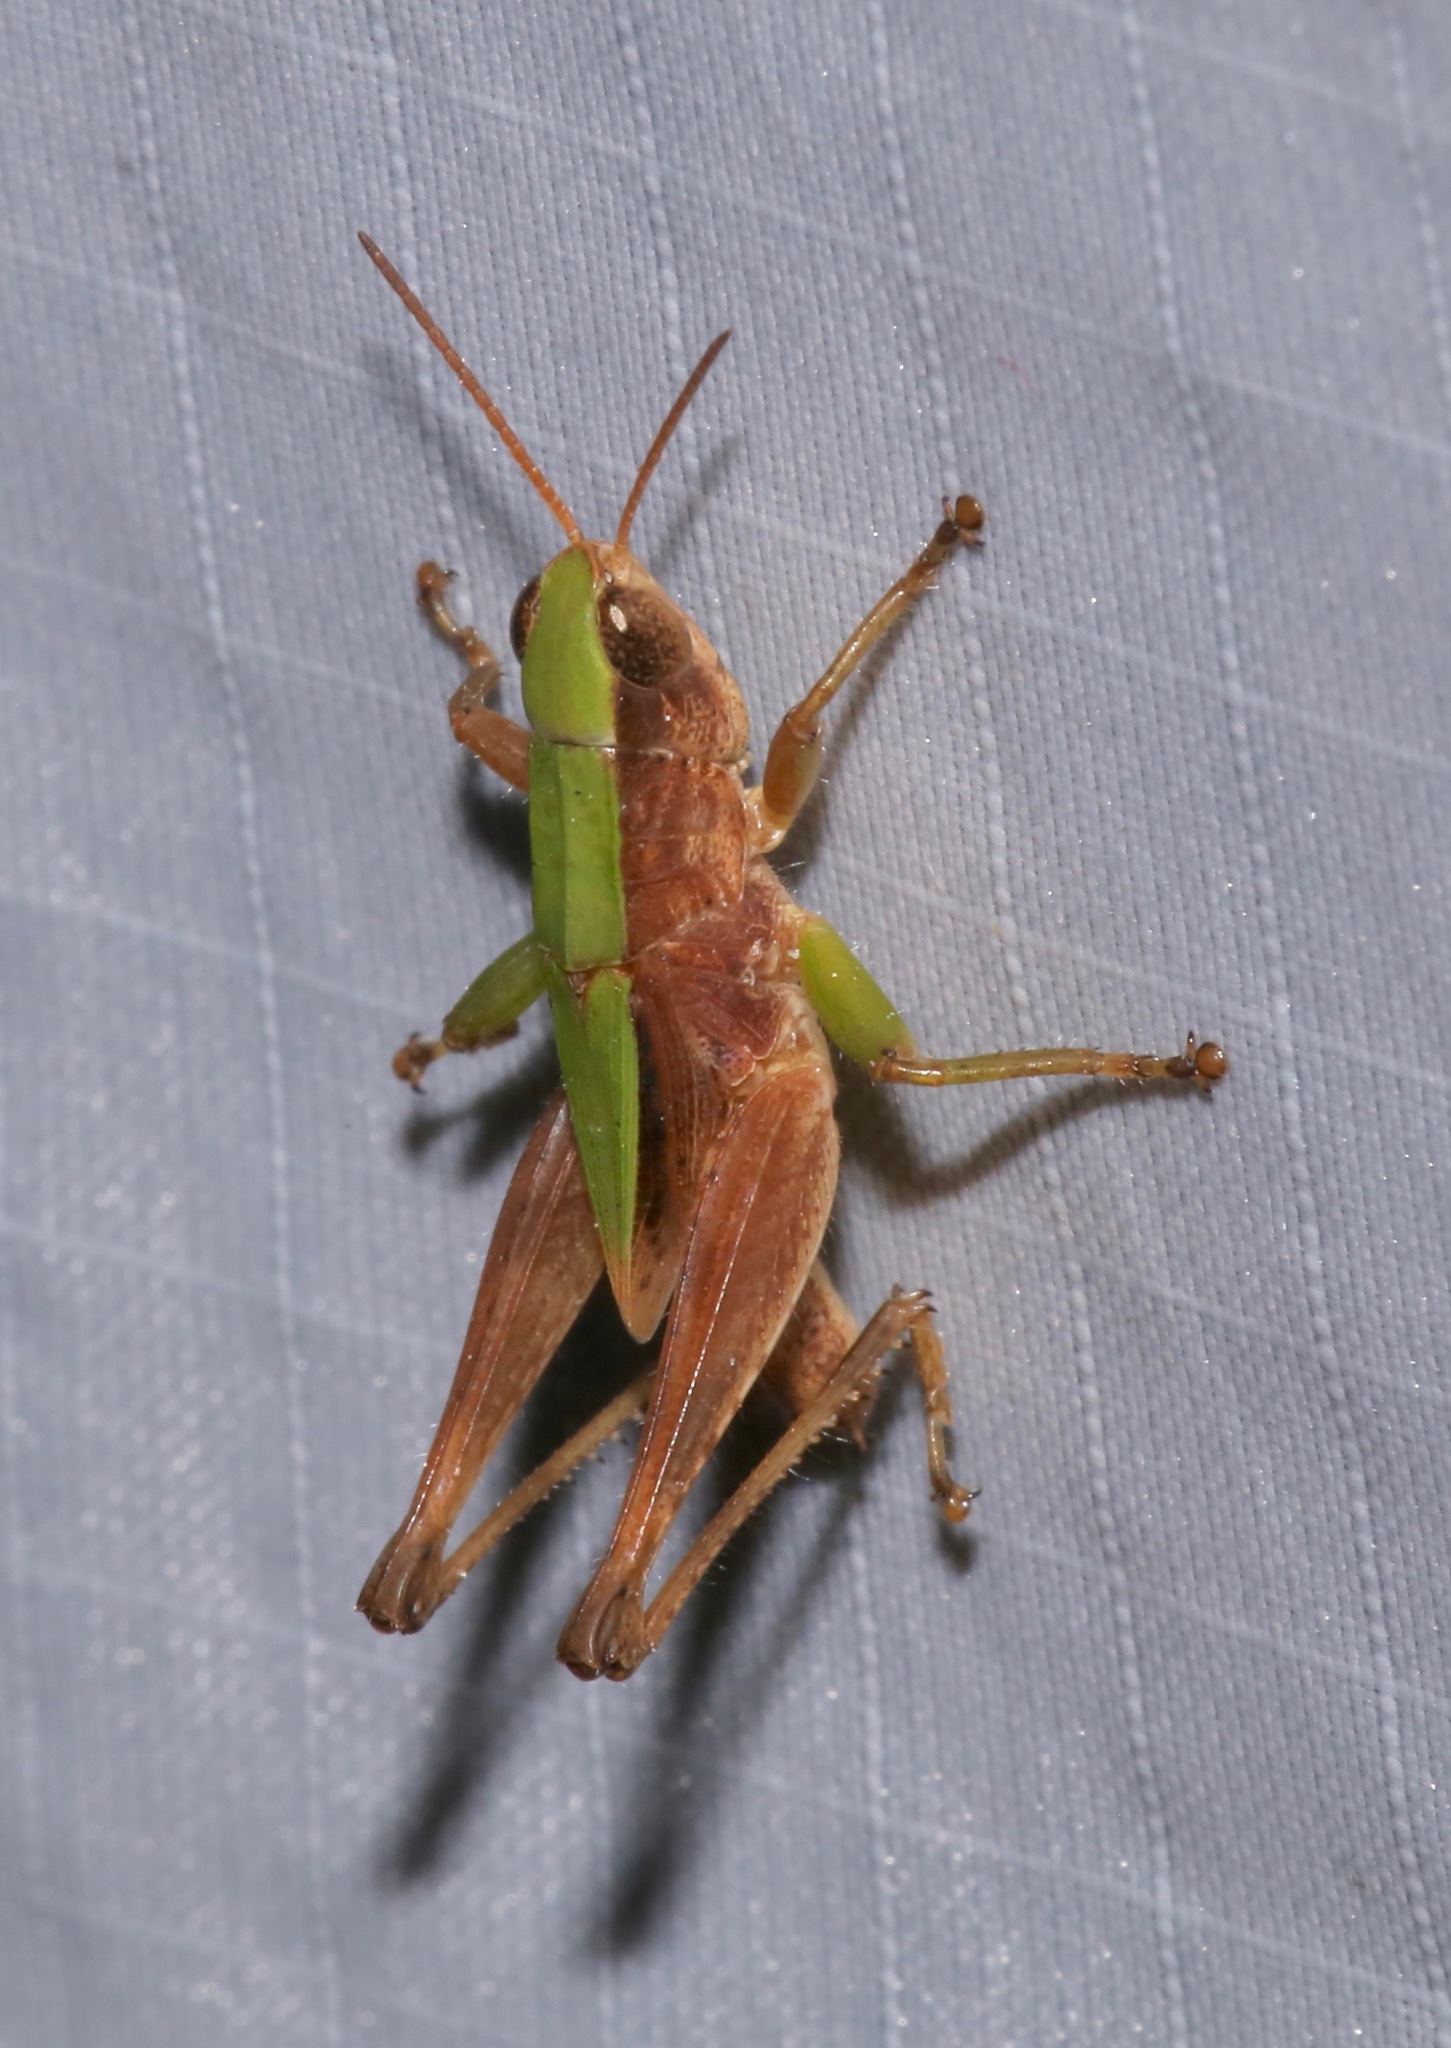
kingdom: Animalia
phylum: Arthropoda
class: Insecta
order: Orthoptera
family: Acrididae
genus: Dichromorpha
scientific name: Dichromorpha viridis
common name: Short-winged green grasshopper
